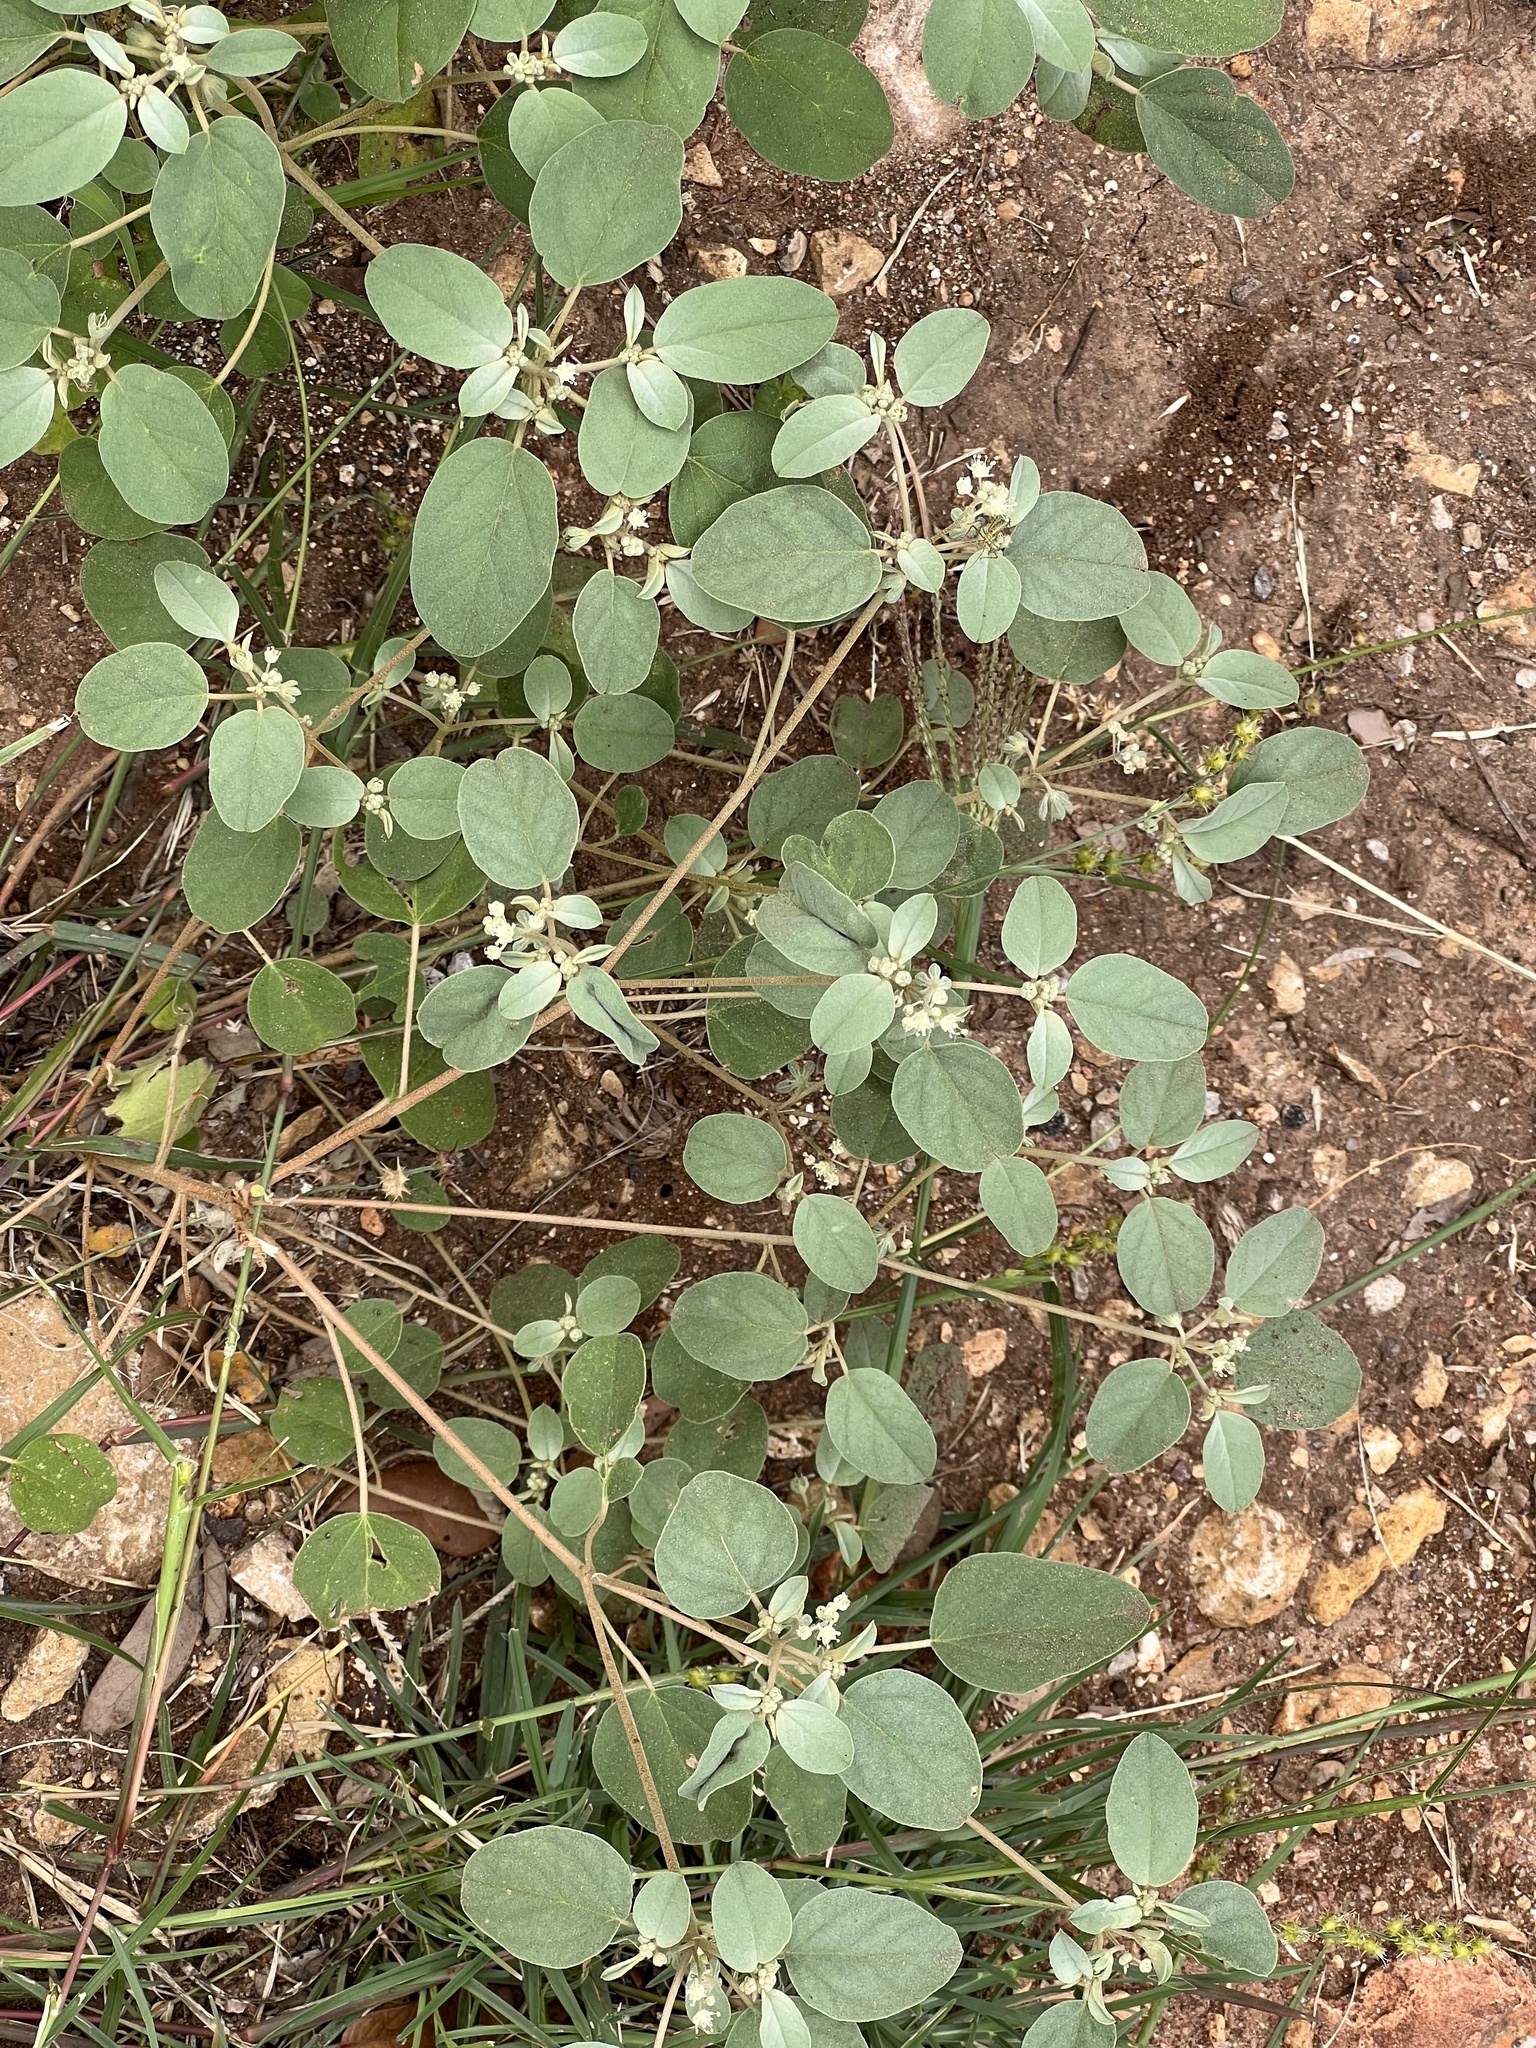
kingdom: Plantae
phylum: Tracheophyta
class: Magnoliopsida
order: Malpighiales
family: Euphorbiaceae
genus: Croton
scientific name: Croton lindheimerianus
